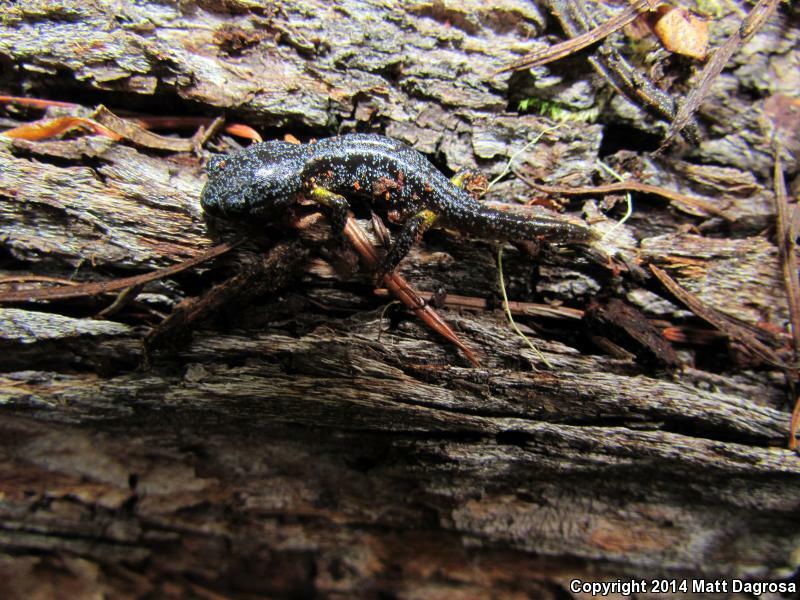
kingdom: Animalia
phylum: Chordata
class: Amphibia
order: Caudata
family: Plethodontidae
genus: Ensatina
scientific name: Ensatina eschscholtzii
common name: Ensatina
